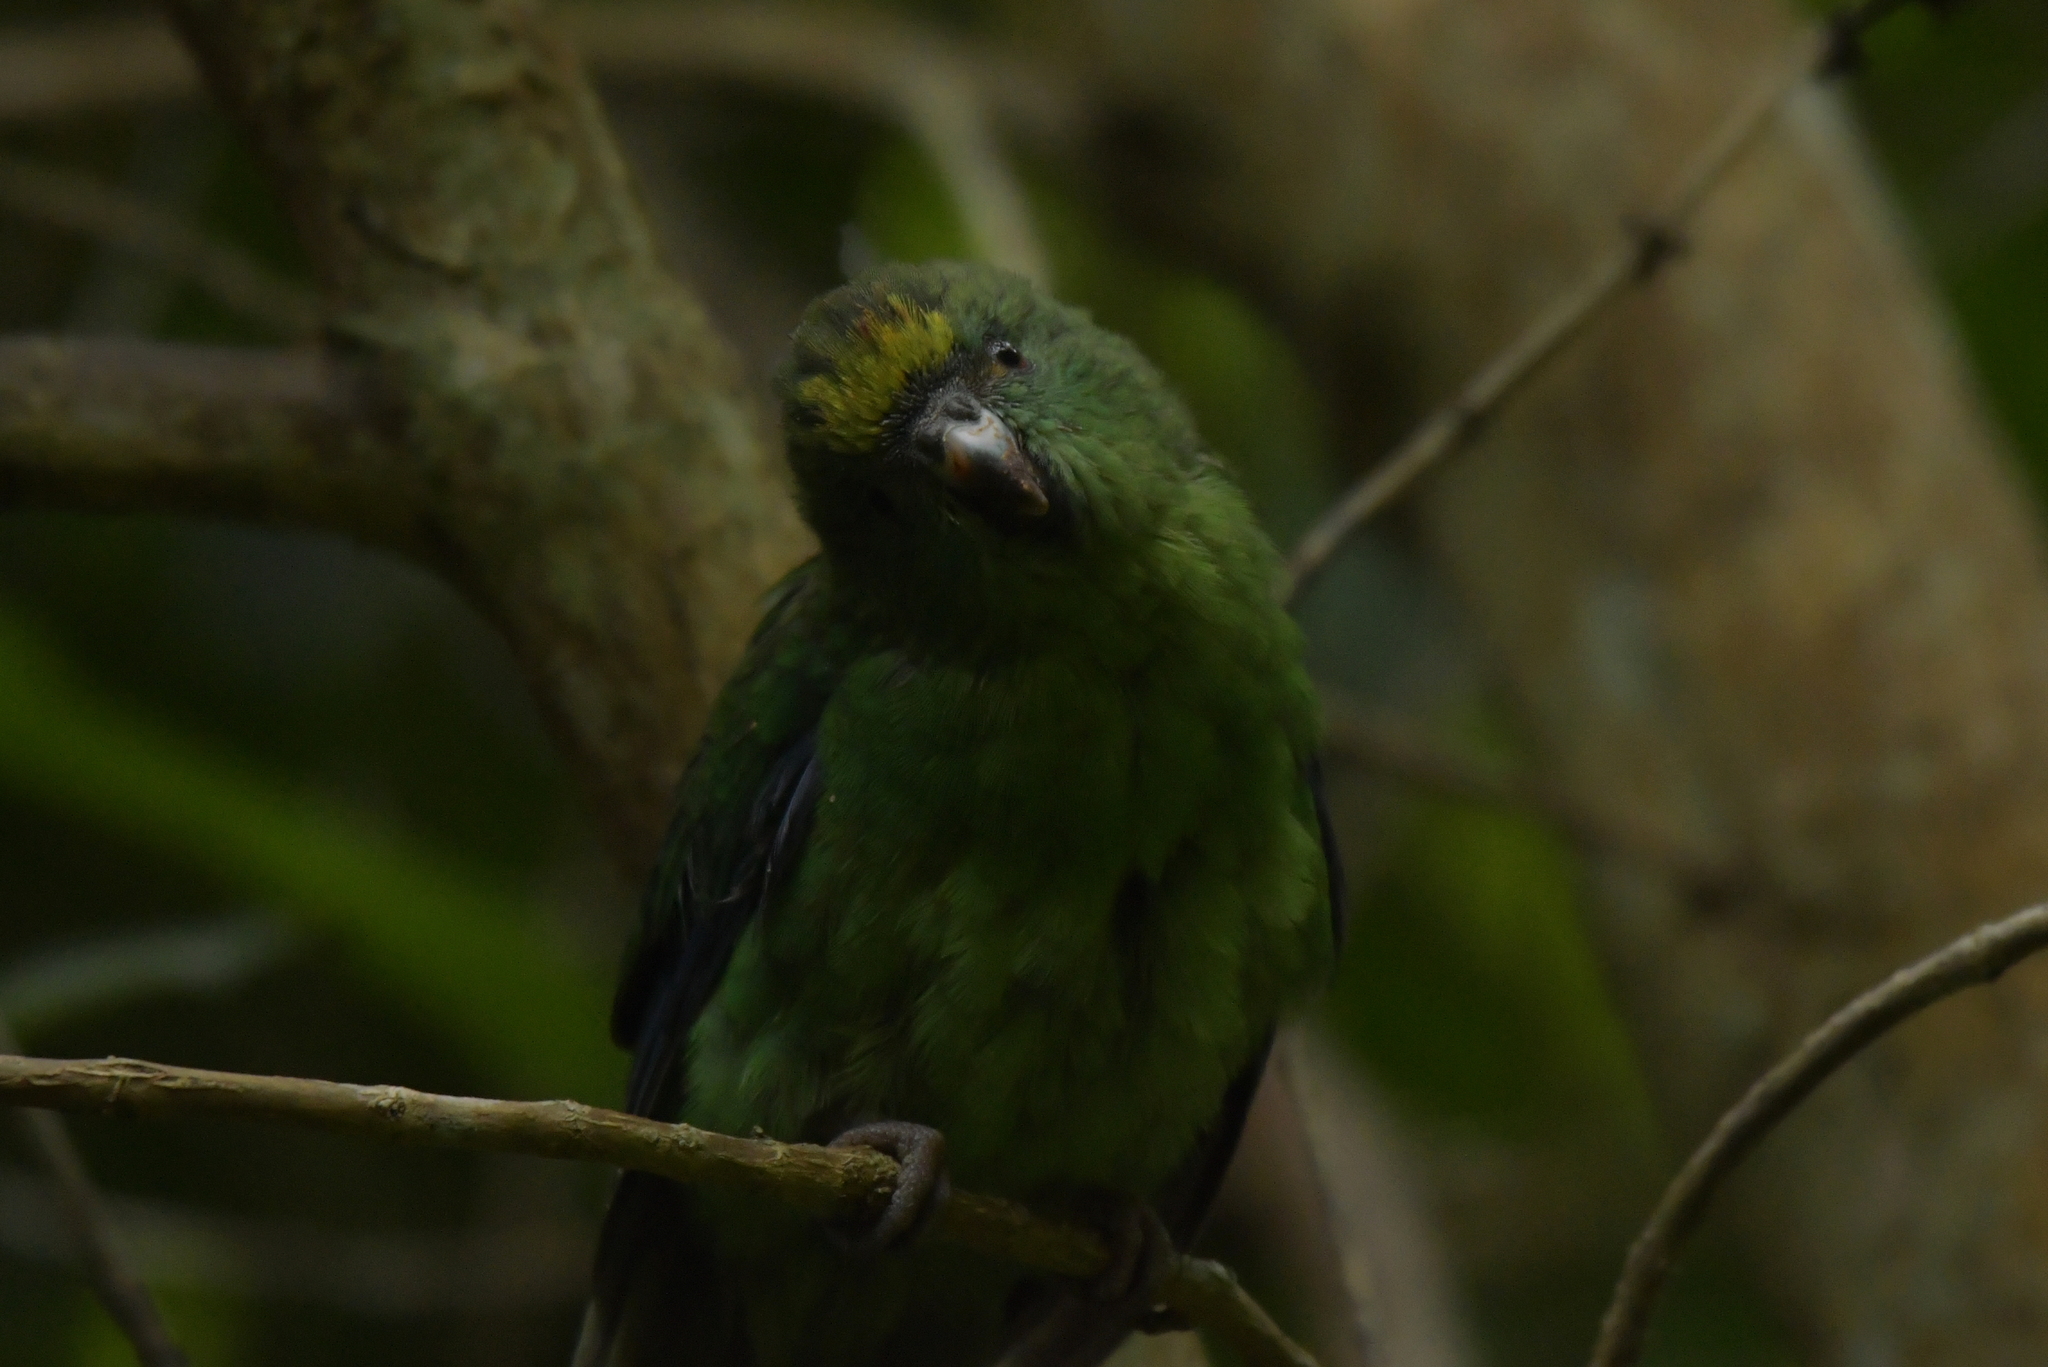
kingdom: Animalia
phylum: Chordata
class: Aves
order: Psittaciformes
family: Psittacidae
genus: Cyanoramphus
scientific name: Cyanoramphus malherbi
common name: Malherbe's parakeet
